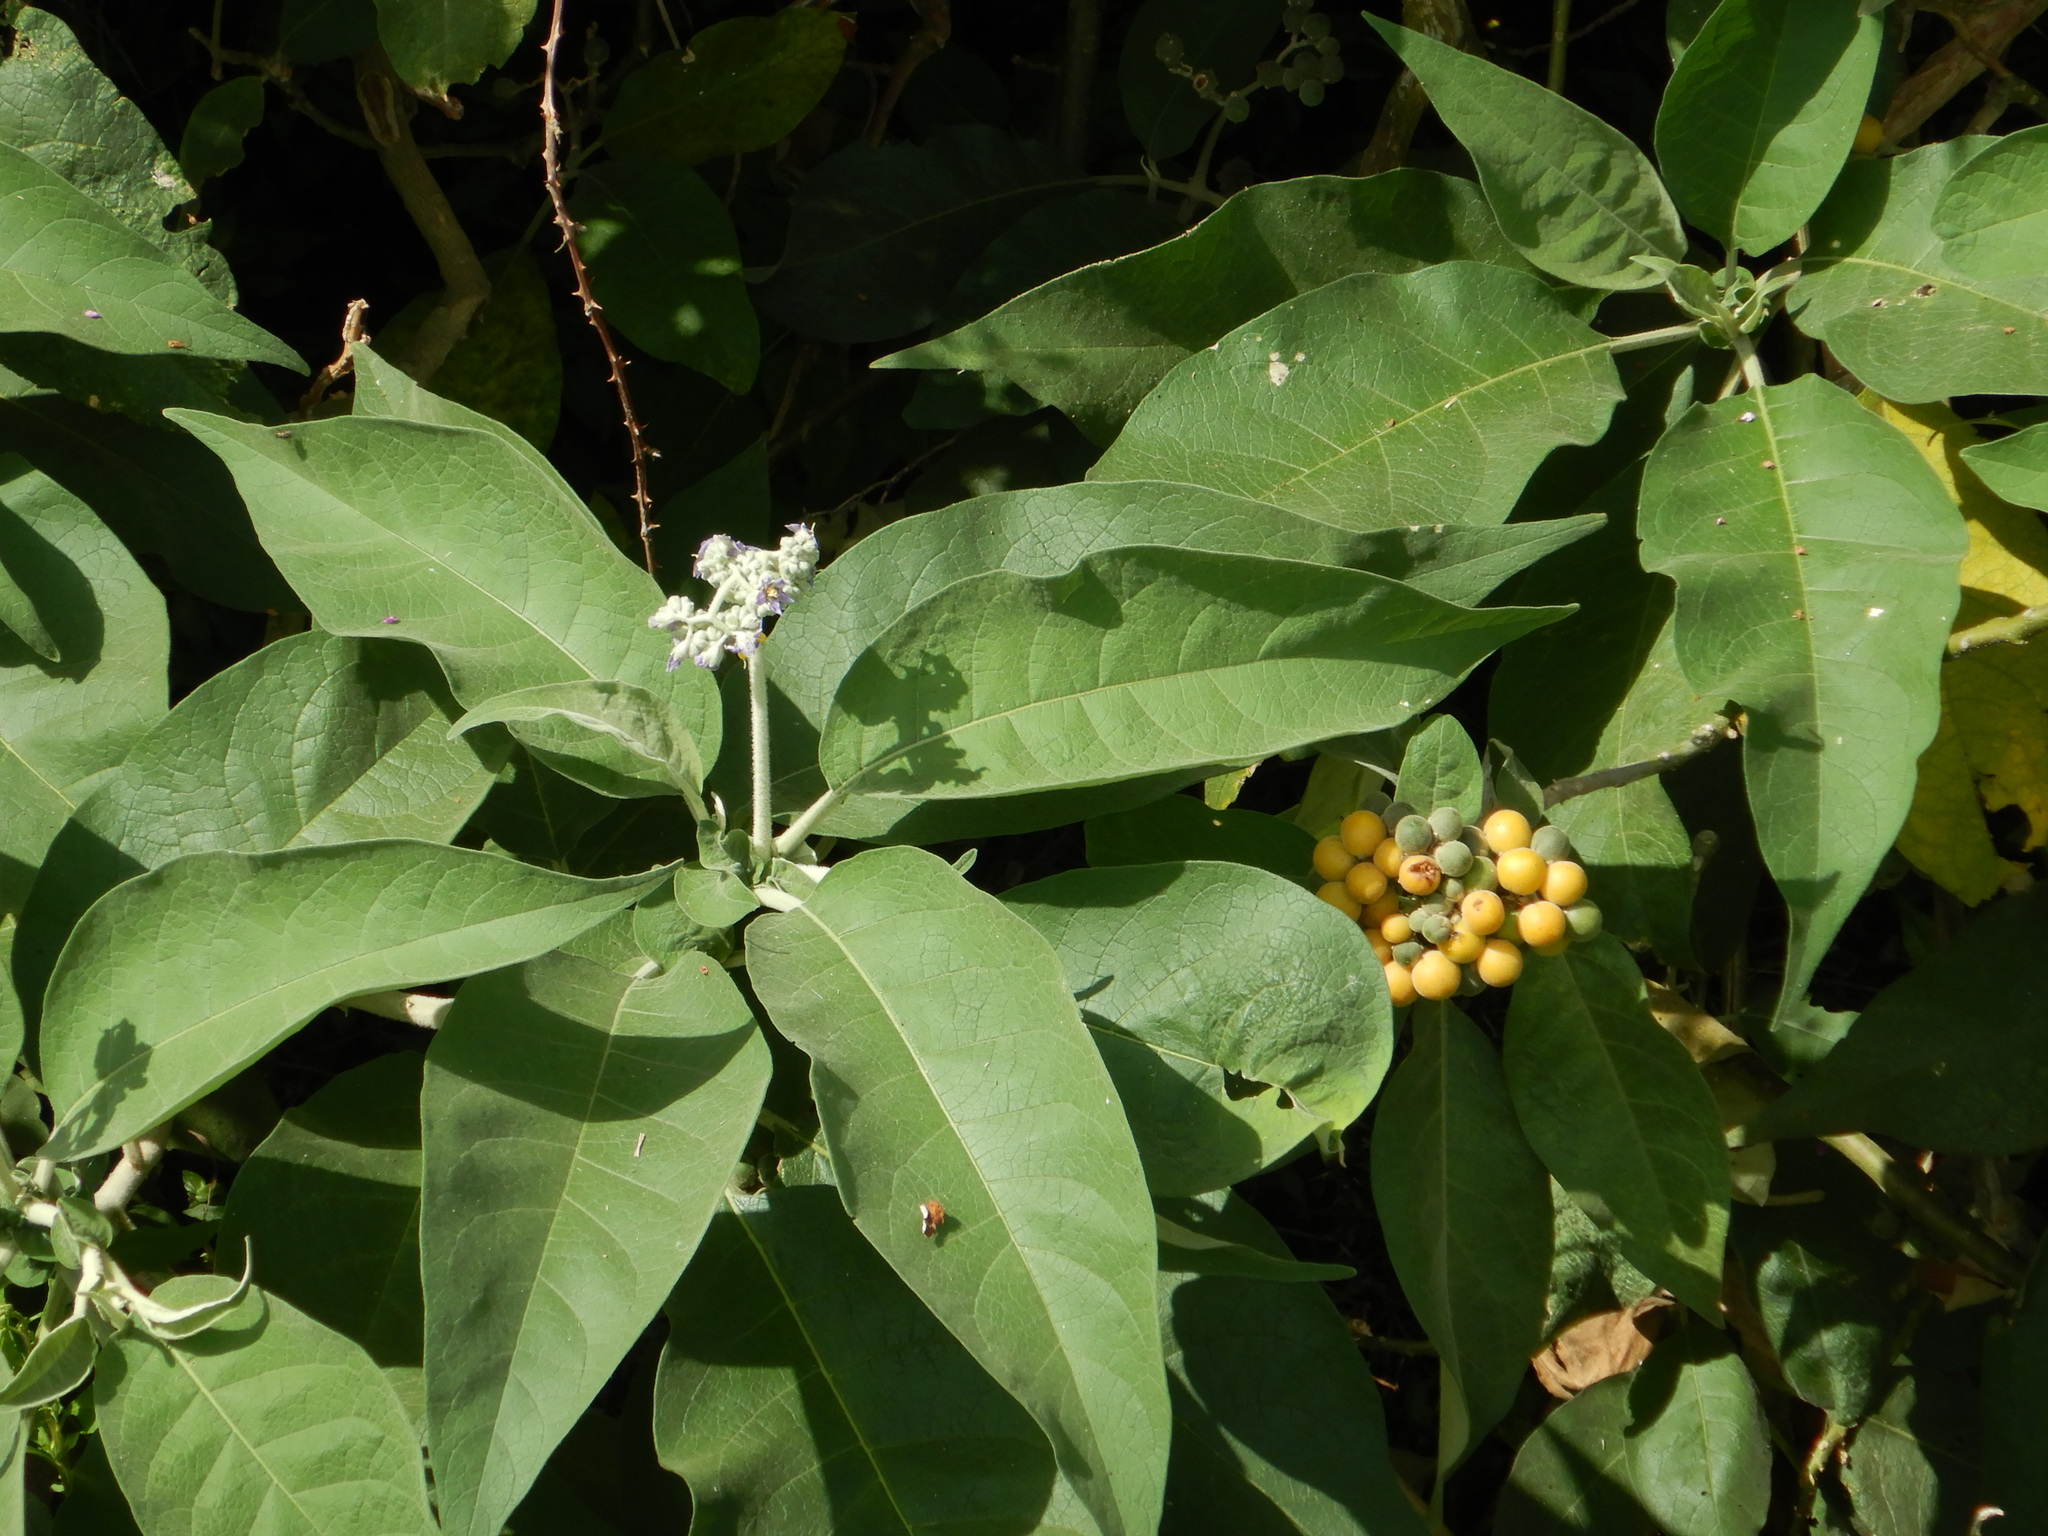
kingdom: Plantae
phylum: Tracheophyta
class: Magnoliopsida
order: Solanales
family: Solanaceae
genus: Solanum
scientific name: Solanum mauritianum
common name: Earleaf nightshade
